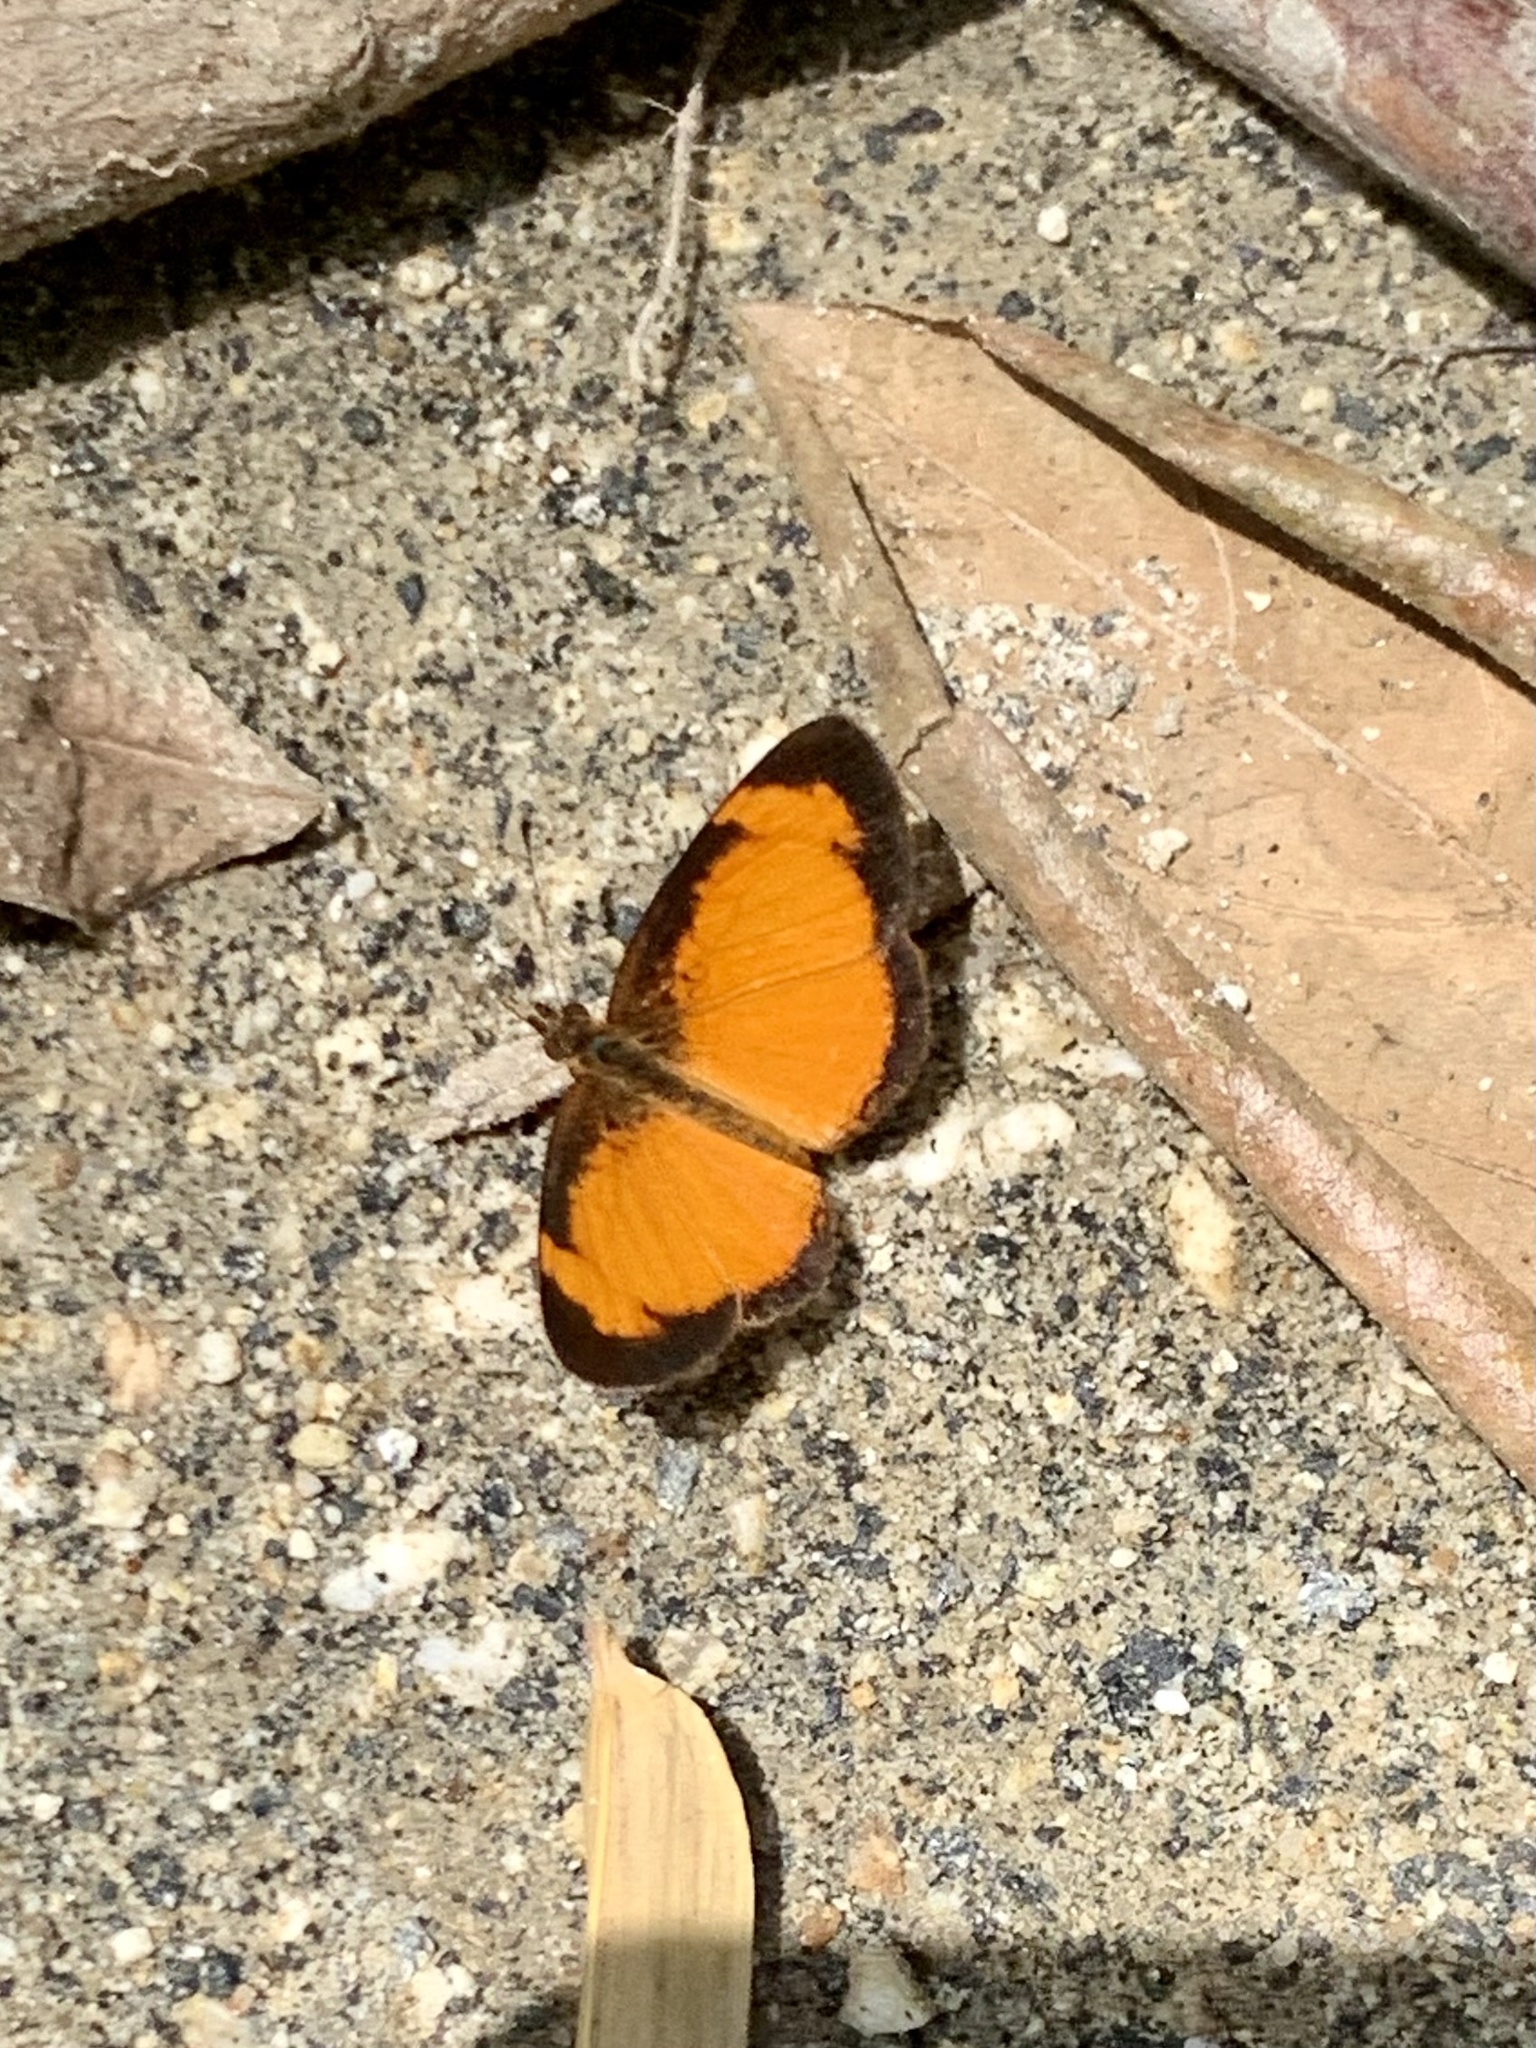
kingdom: Animalia
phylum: Arthropoda
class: Insecta
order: Lepidoptera
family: Nymphalidae
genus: Tegosa
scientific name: Tegosa anieta
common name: Black-bordered crescent
